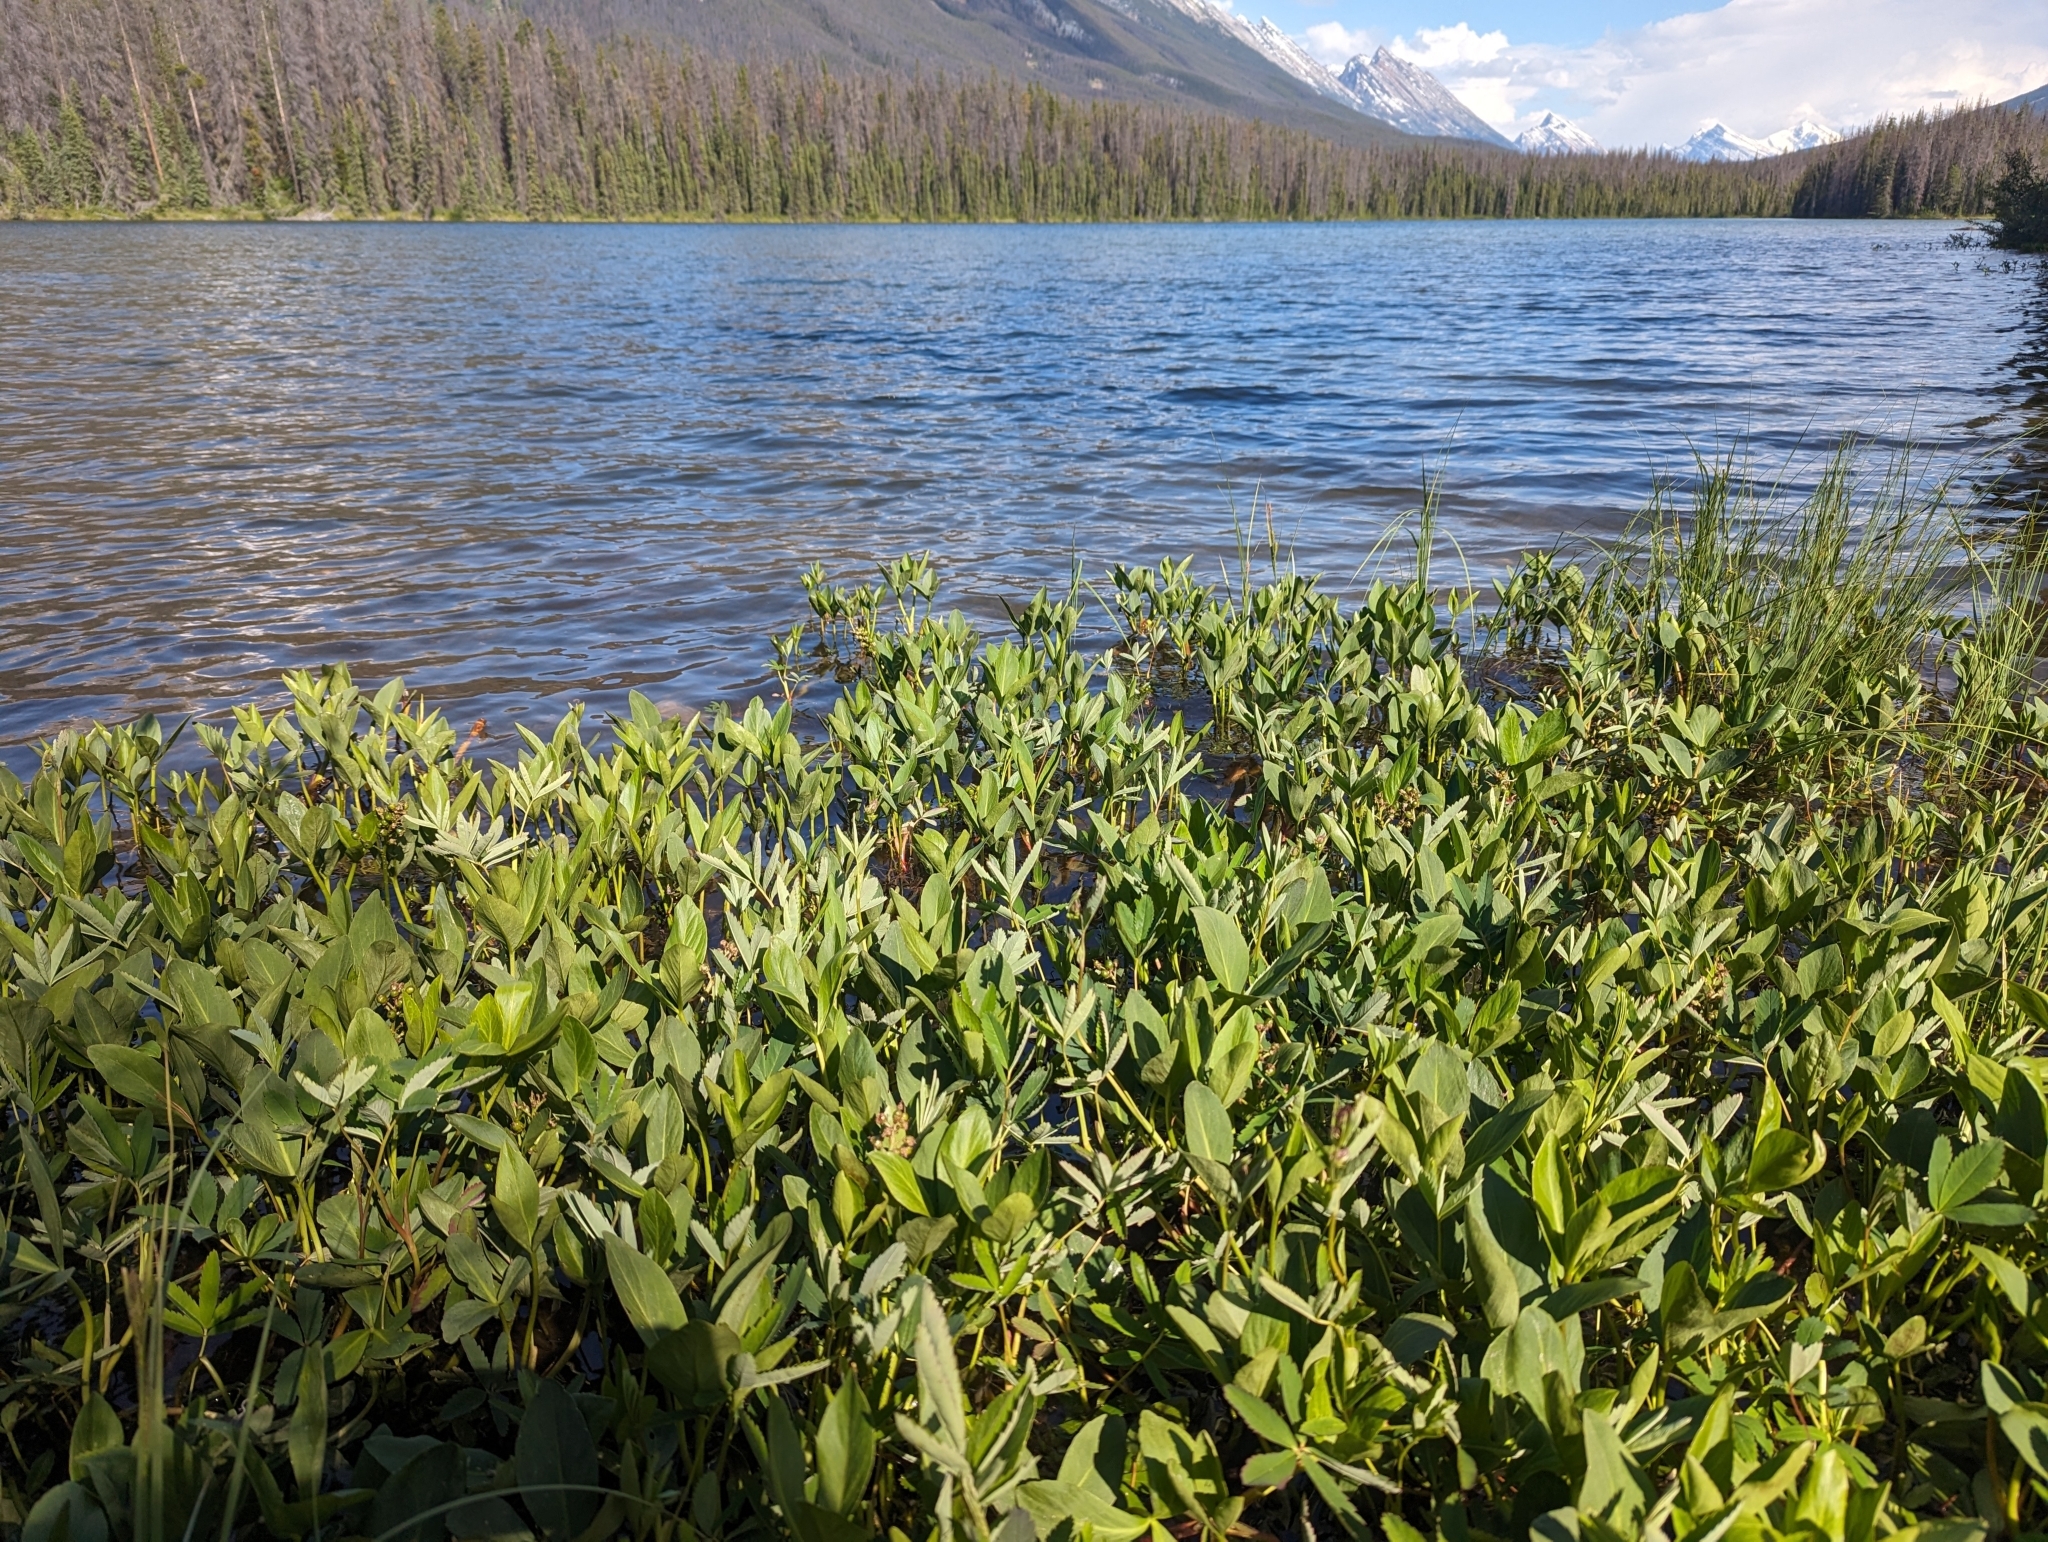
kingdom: Plantae
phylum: Tracheophyta
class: Magnoliopsida
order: Asterales
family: Menyanthaceae
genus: Menyanthes
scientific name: Menyanthes trifoliata
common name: Bogbean
